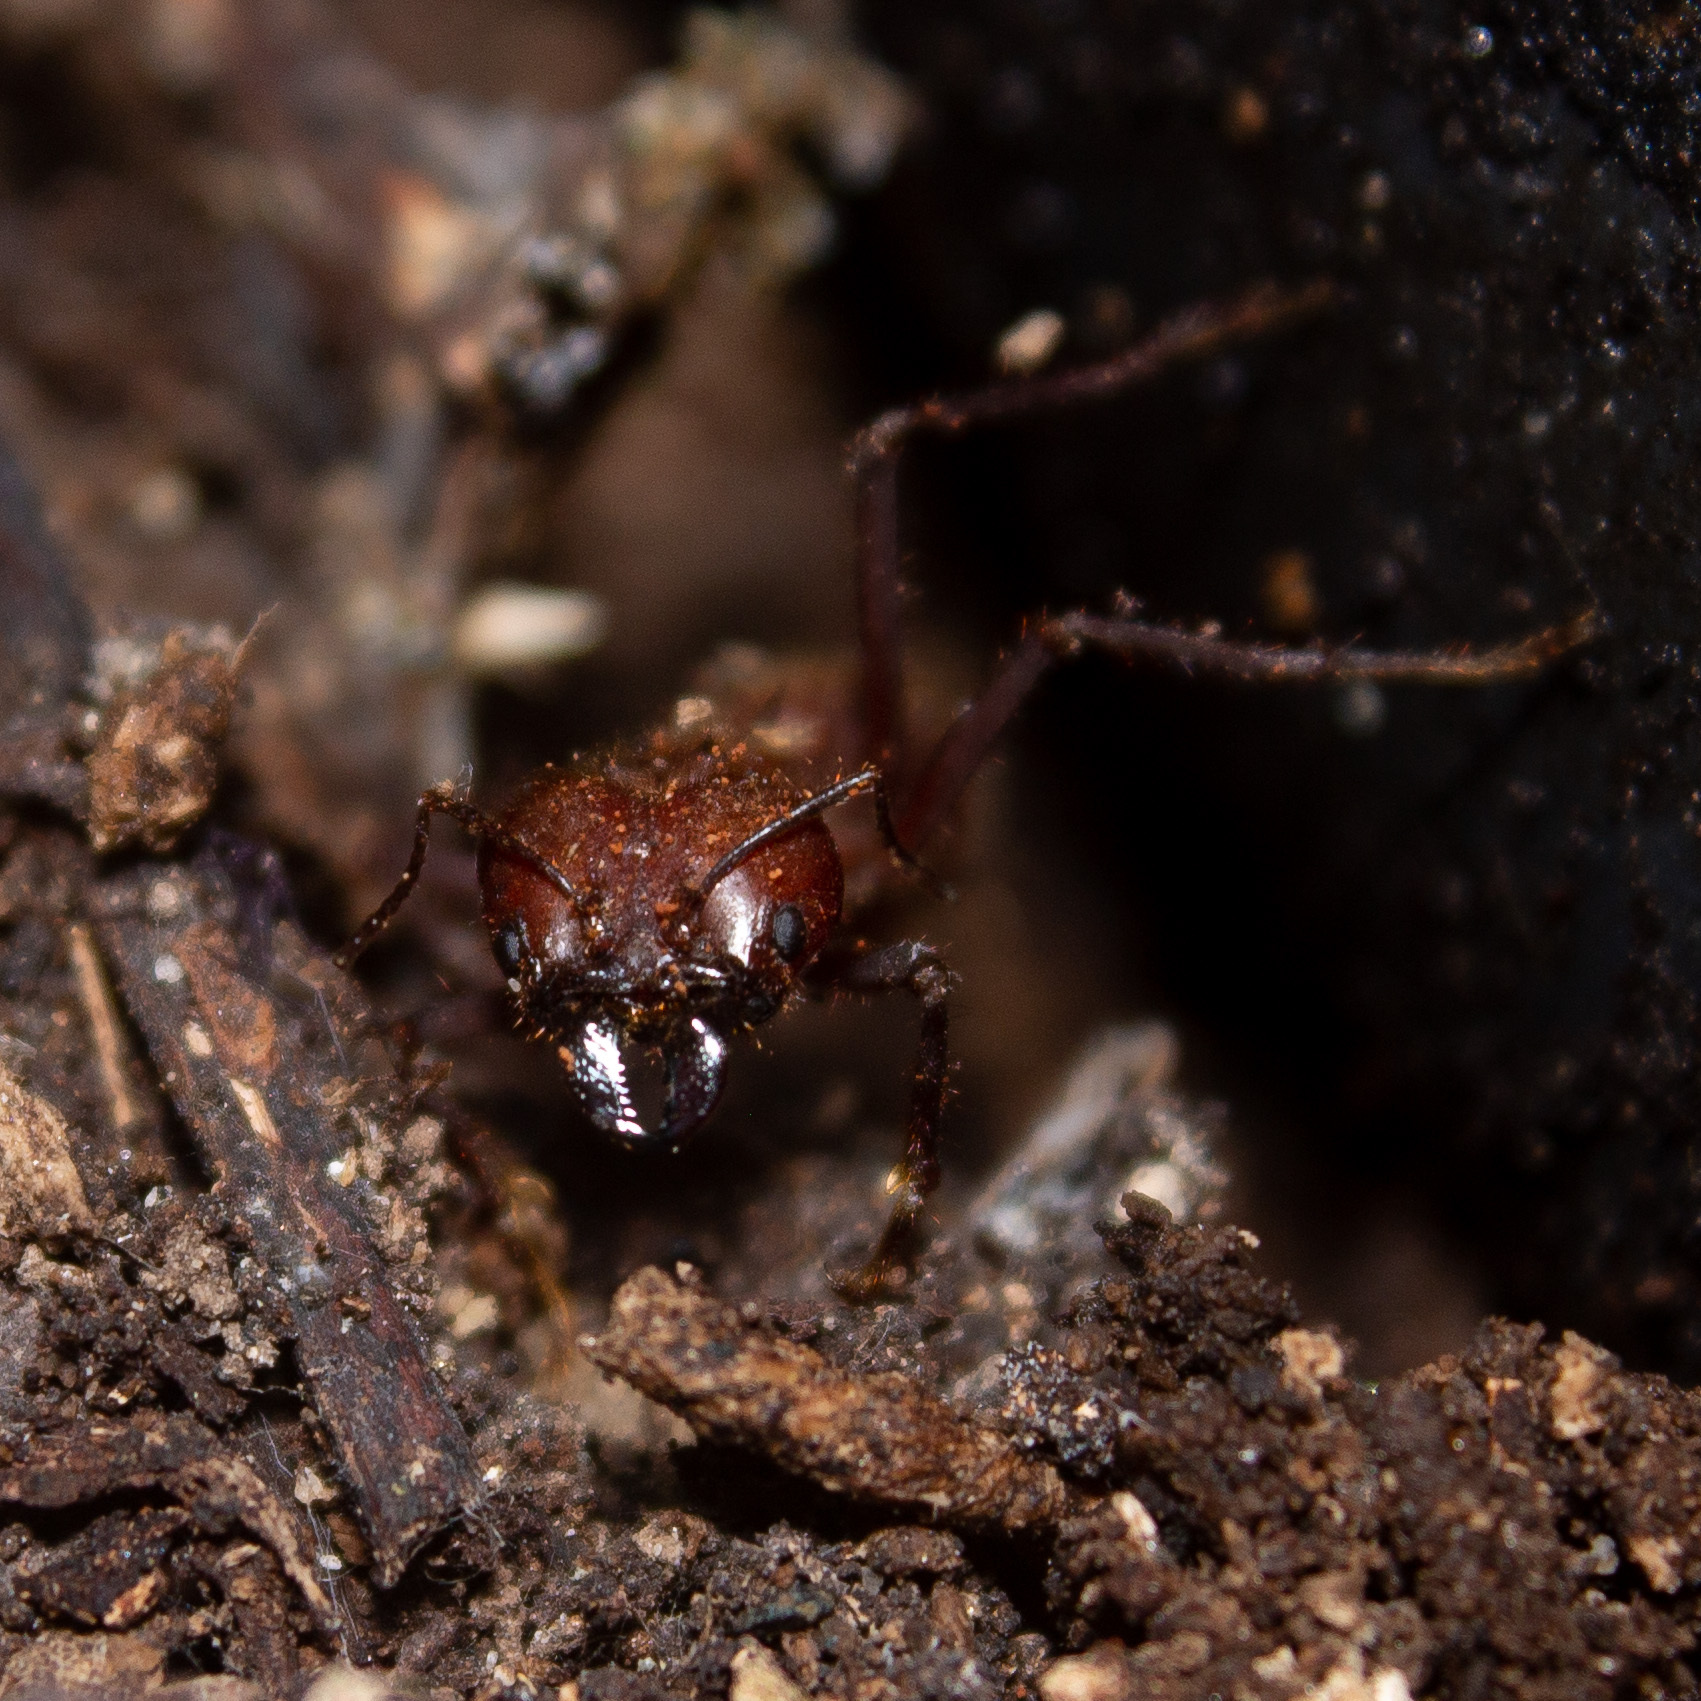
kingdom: Animalia
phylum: Arthropoda
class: Insecta
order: Hymenoptera
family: Formicidae
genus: Atta
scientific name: Atta cephalotes
